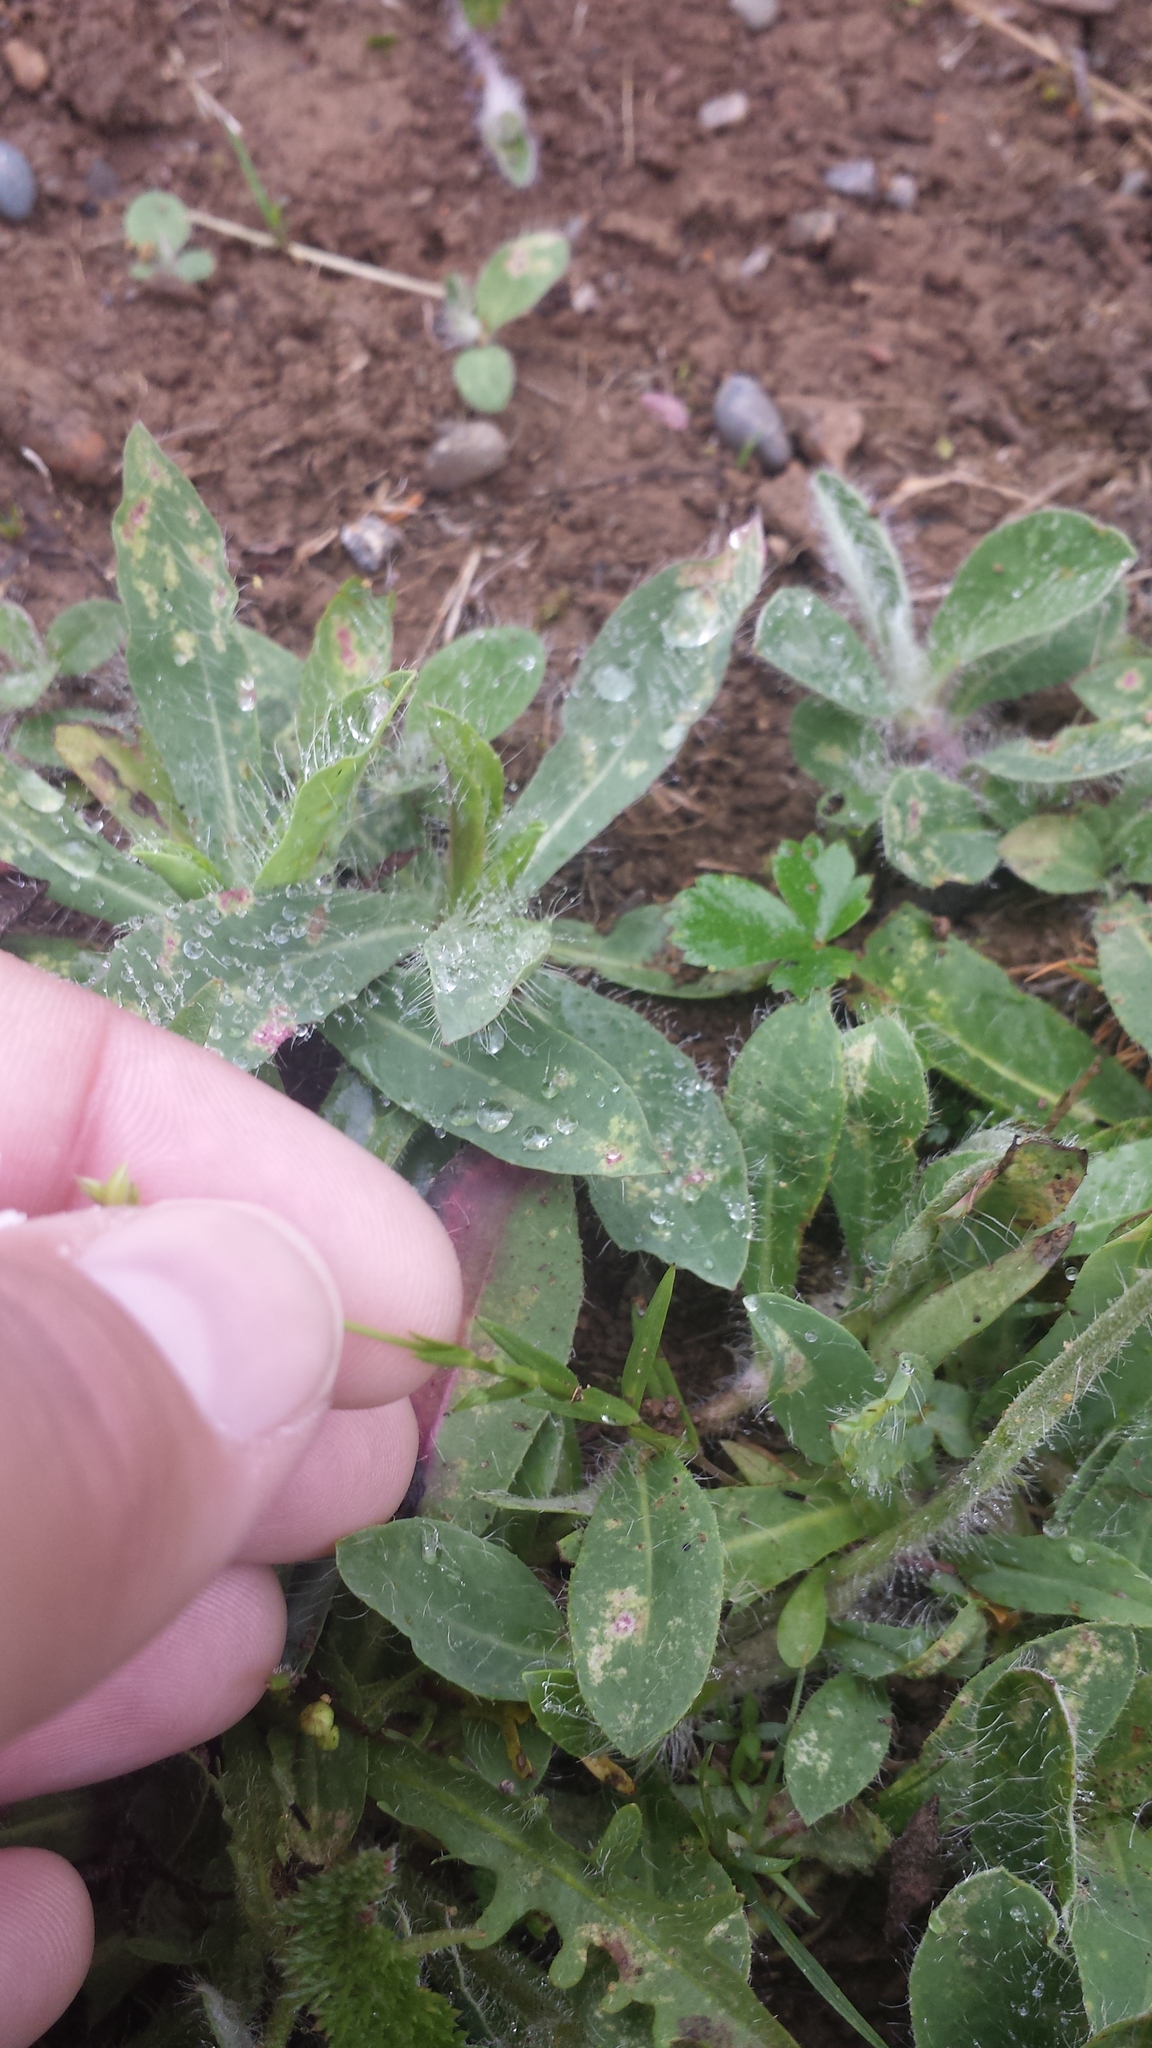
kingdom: Plantae
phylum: Tracheophyta
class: Magnoliopsida
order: Caryophyllales
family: Caryophyllaceae
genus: Stellaria
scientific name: Stellaria graminea
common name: Grass-like starwort
